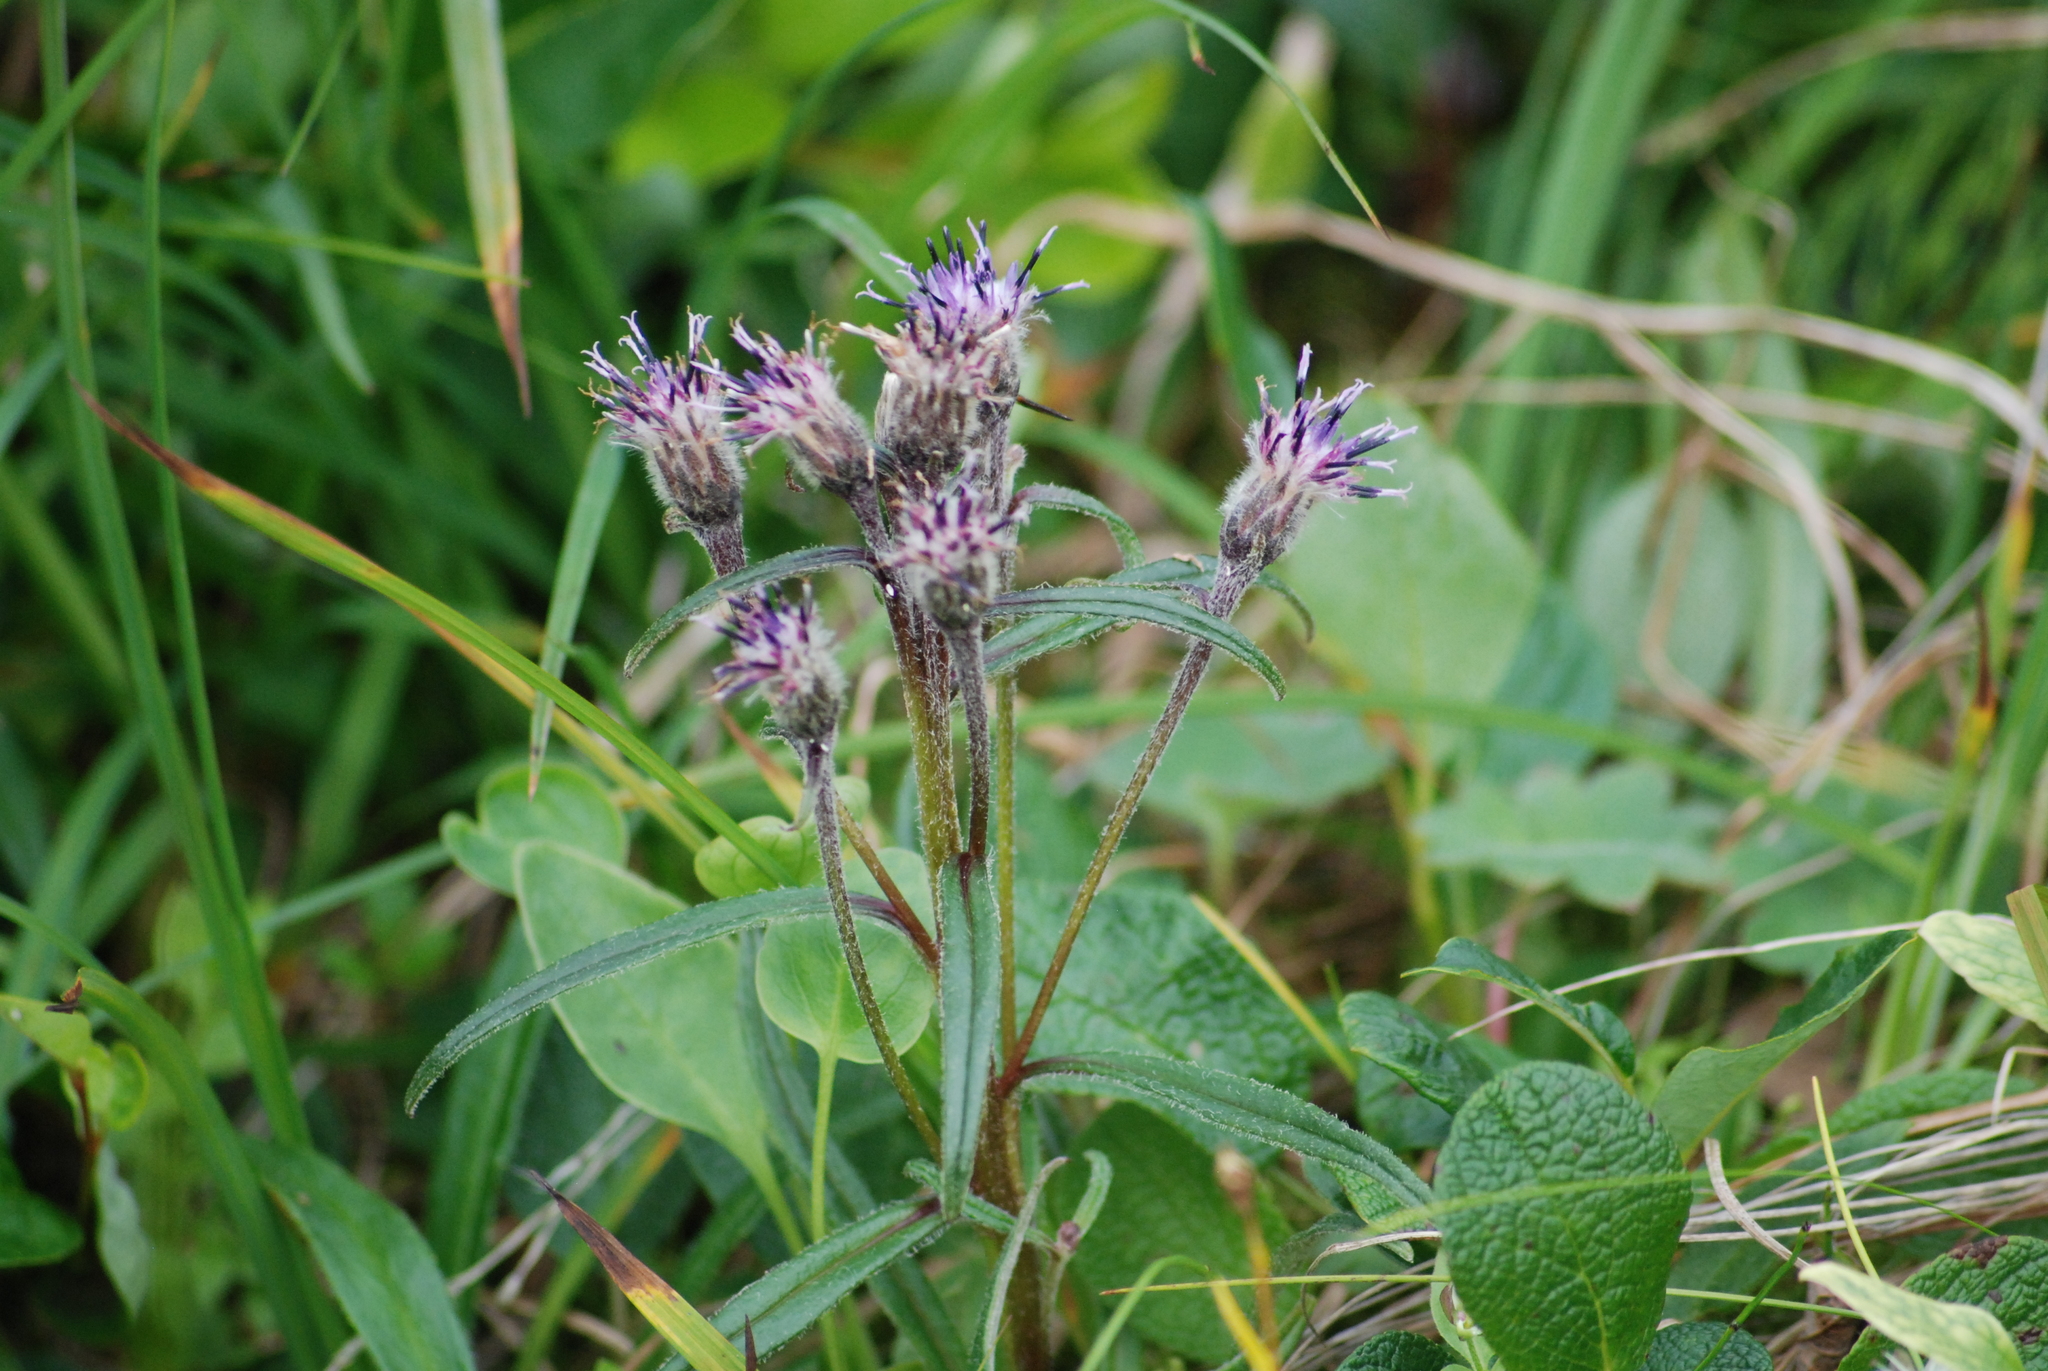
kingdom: Plantae
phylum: Tracheophyta
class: Magnoliopsida
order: Asterales
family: Asteraceae
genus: Saussurea
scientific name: Saussurea angustifolia
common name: Common saussurea
